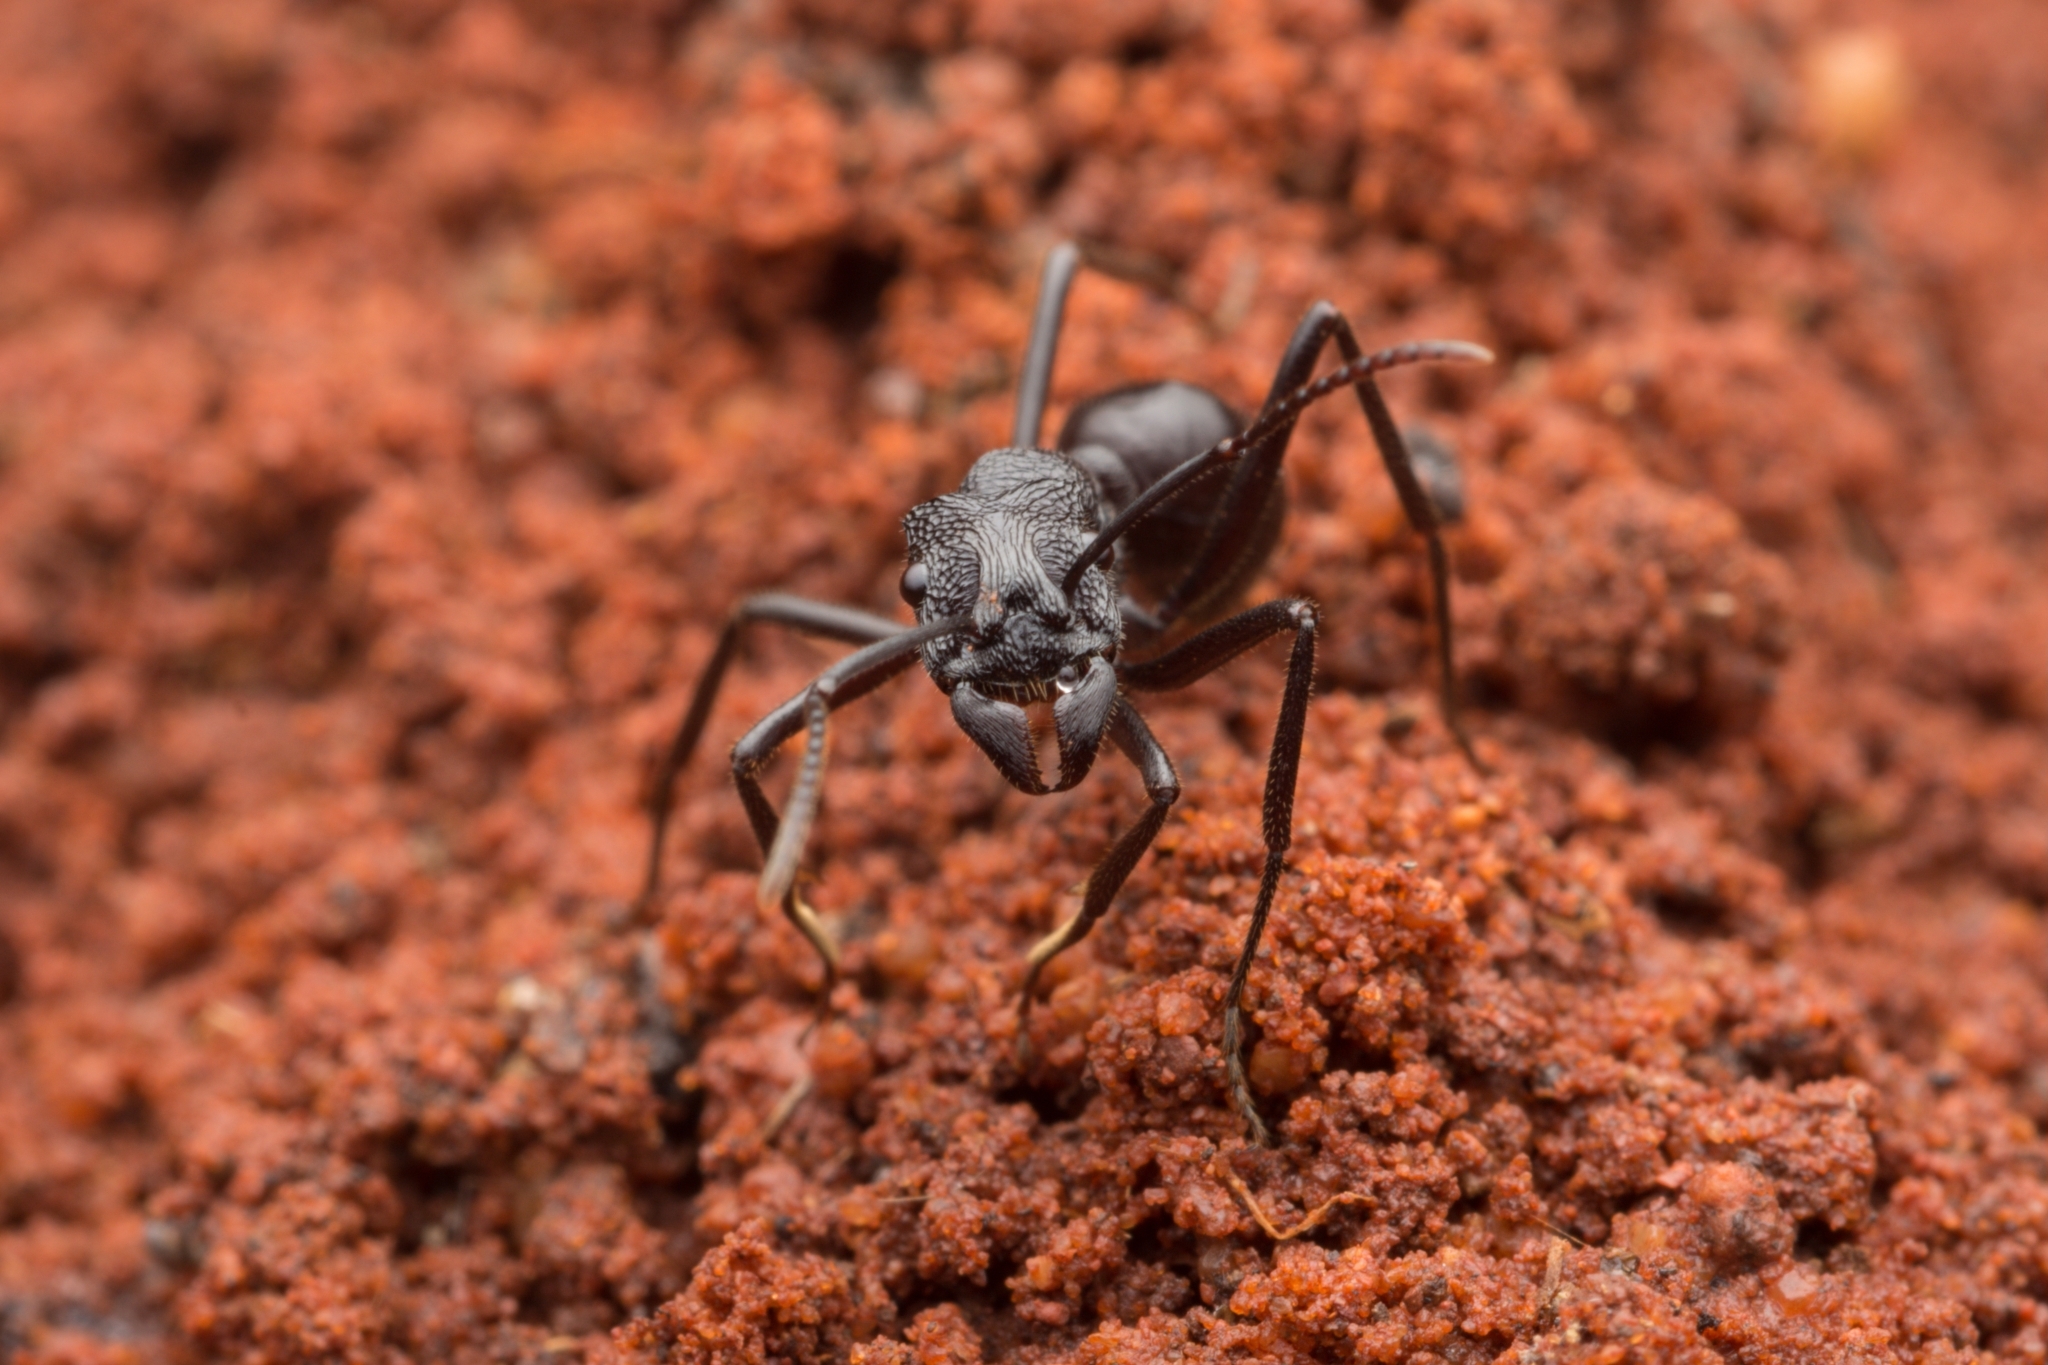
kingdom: Animalia
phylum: Arthropoda
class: Insecta
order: Hymenoptera
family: Formicidae
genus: Rhytidoponera
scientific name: Rhytidoponera mayri
